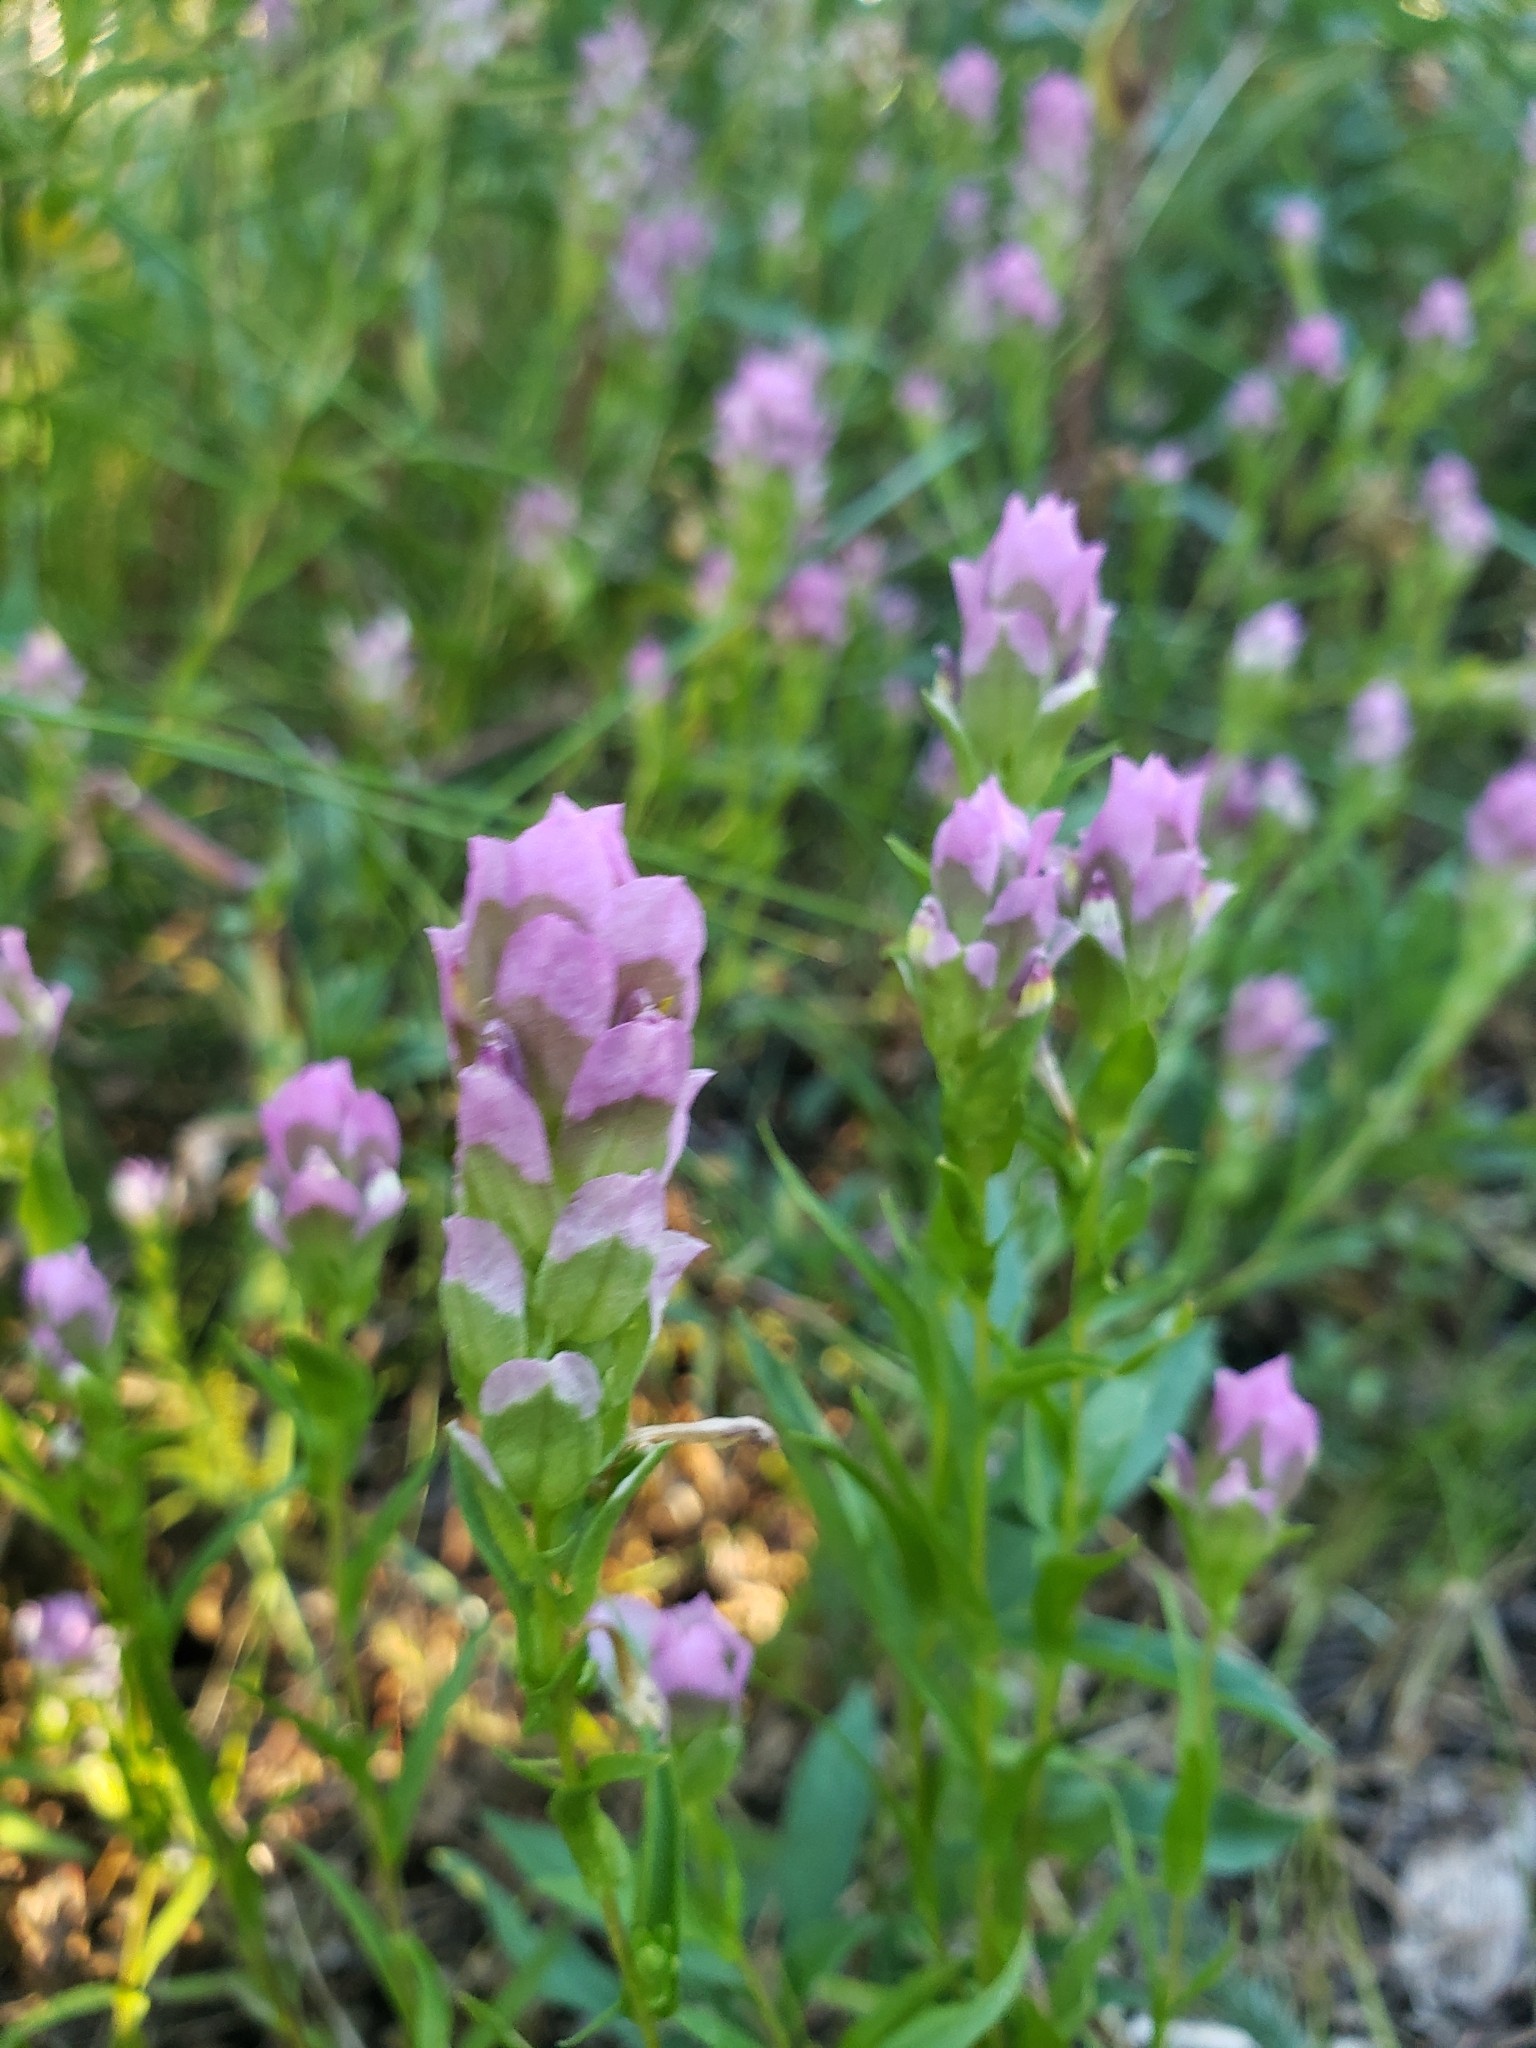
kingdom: Plantae
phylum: Tracheophyta
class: Magnoliopsida
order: Lamiales
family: Orobanchaceae
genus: Orthocarpus
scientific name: Orthocarpus imbricatus
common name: Mountain owl's-clover
